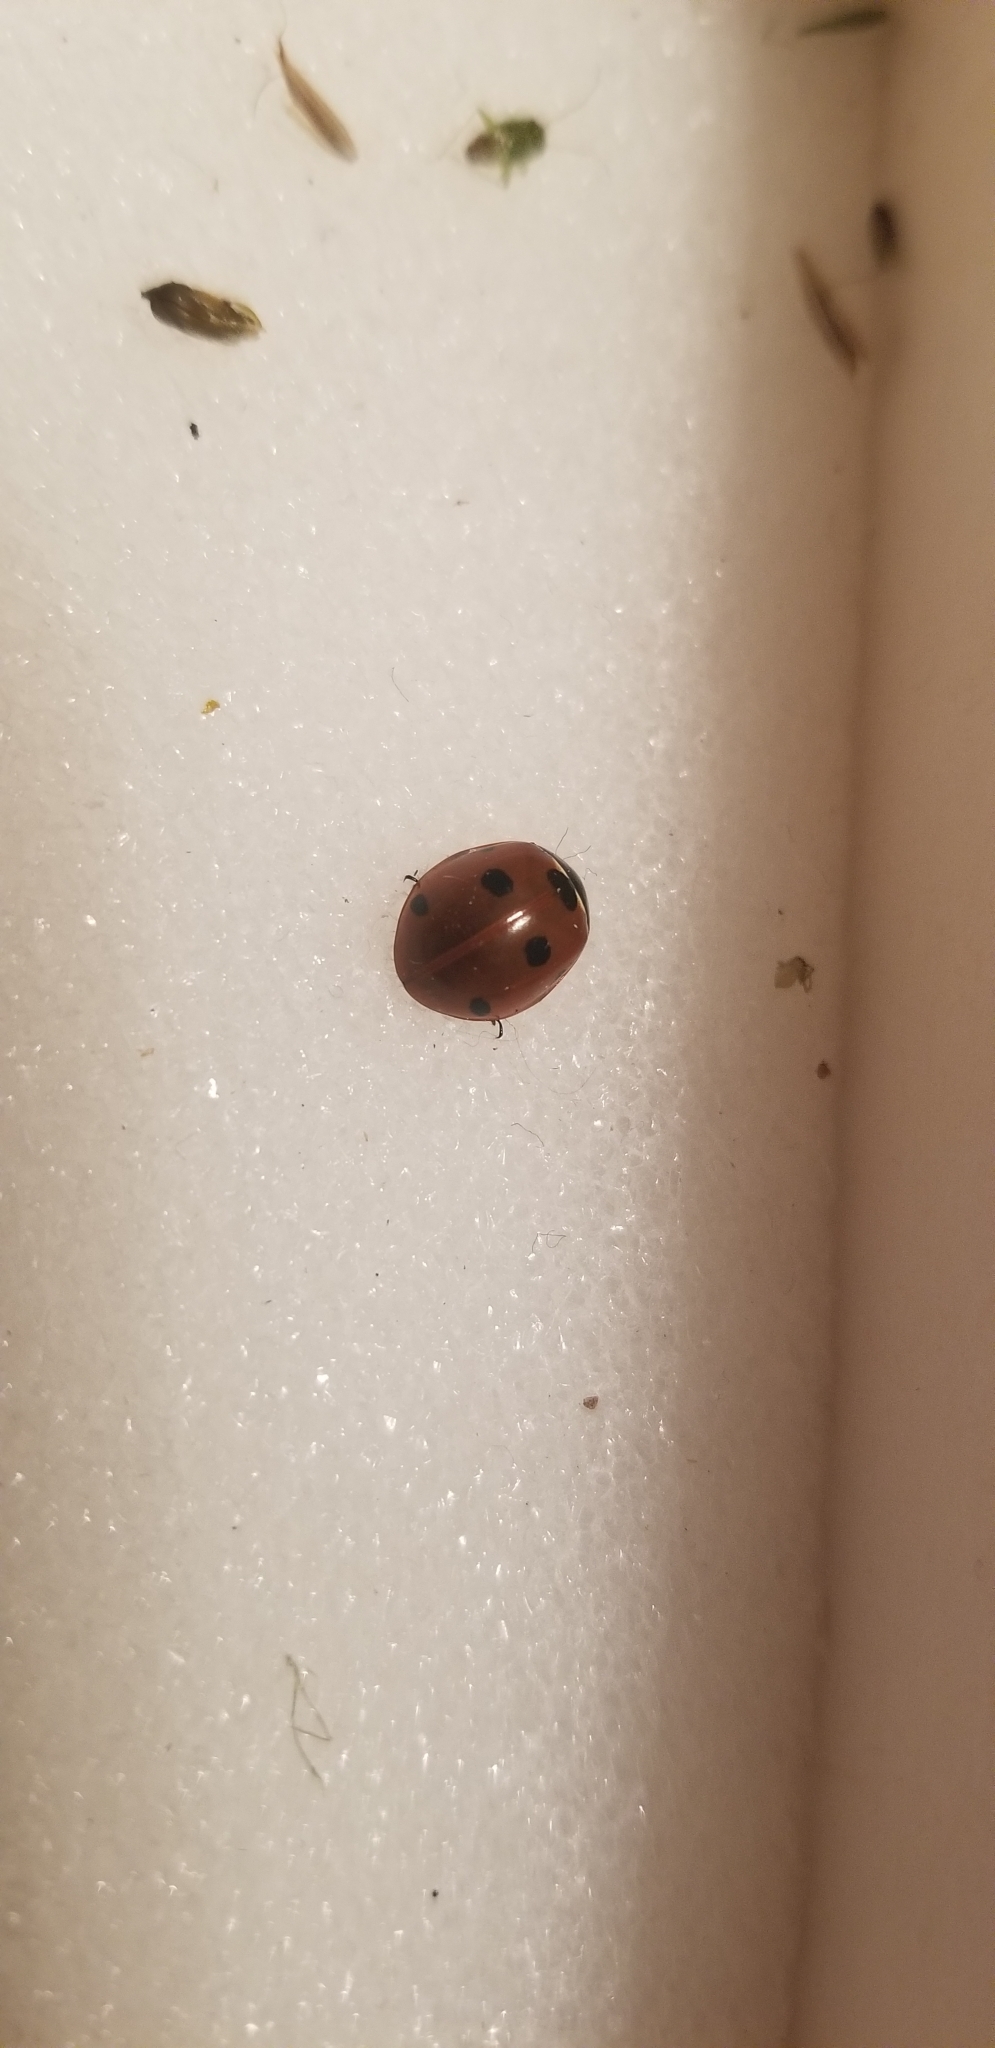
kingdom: Animalia
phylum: Arthropoda
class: Insecta
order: Coleoptera
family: Coccinellidae
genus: Coccinella
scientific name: Coccinella septempunctata
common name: Sevenspotted lady beetle
